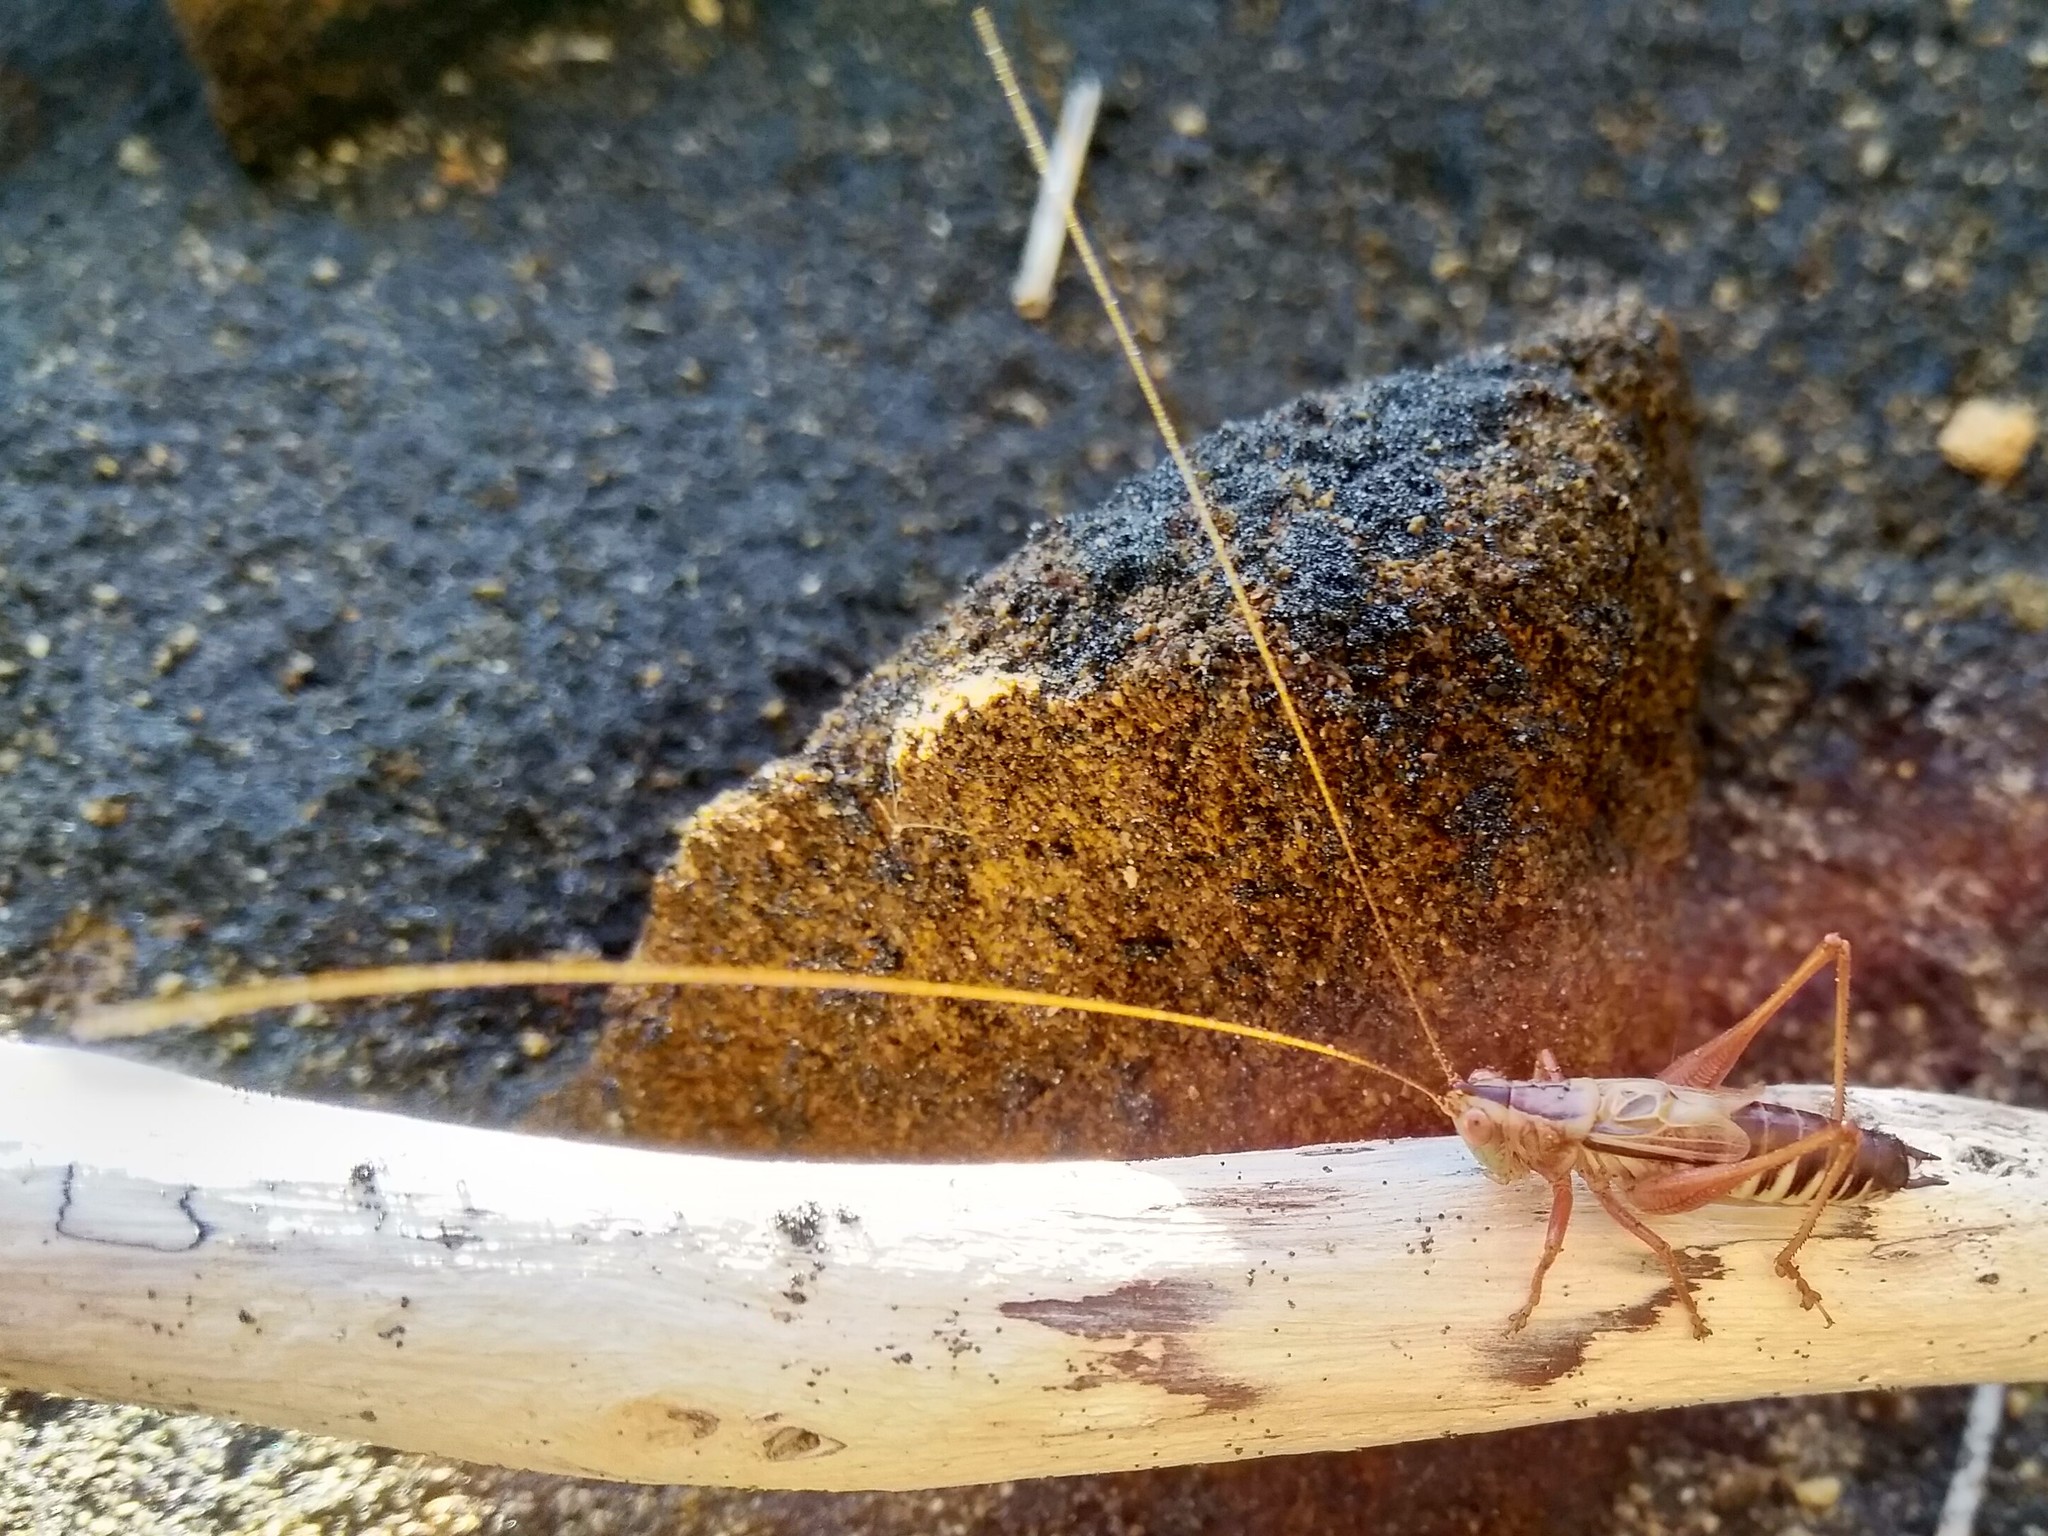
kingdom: Animalia
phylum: Arthropoda
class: Insecta
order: Orthoptera
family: Tettigoniidae
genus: Conocephalus
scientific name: Conocephalus semivittatus
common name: Blackish meadow katydid
